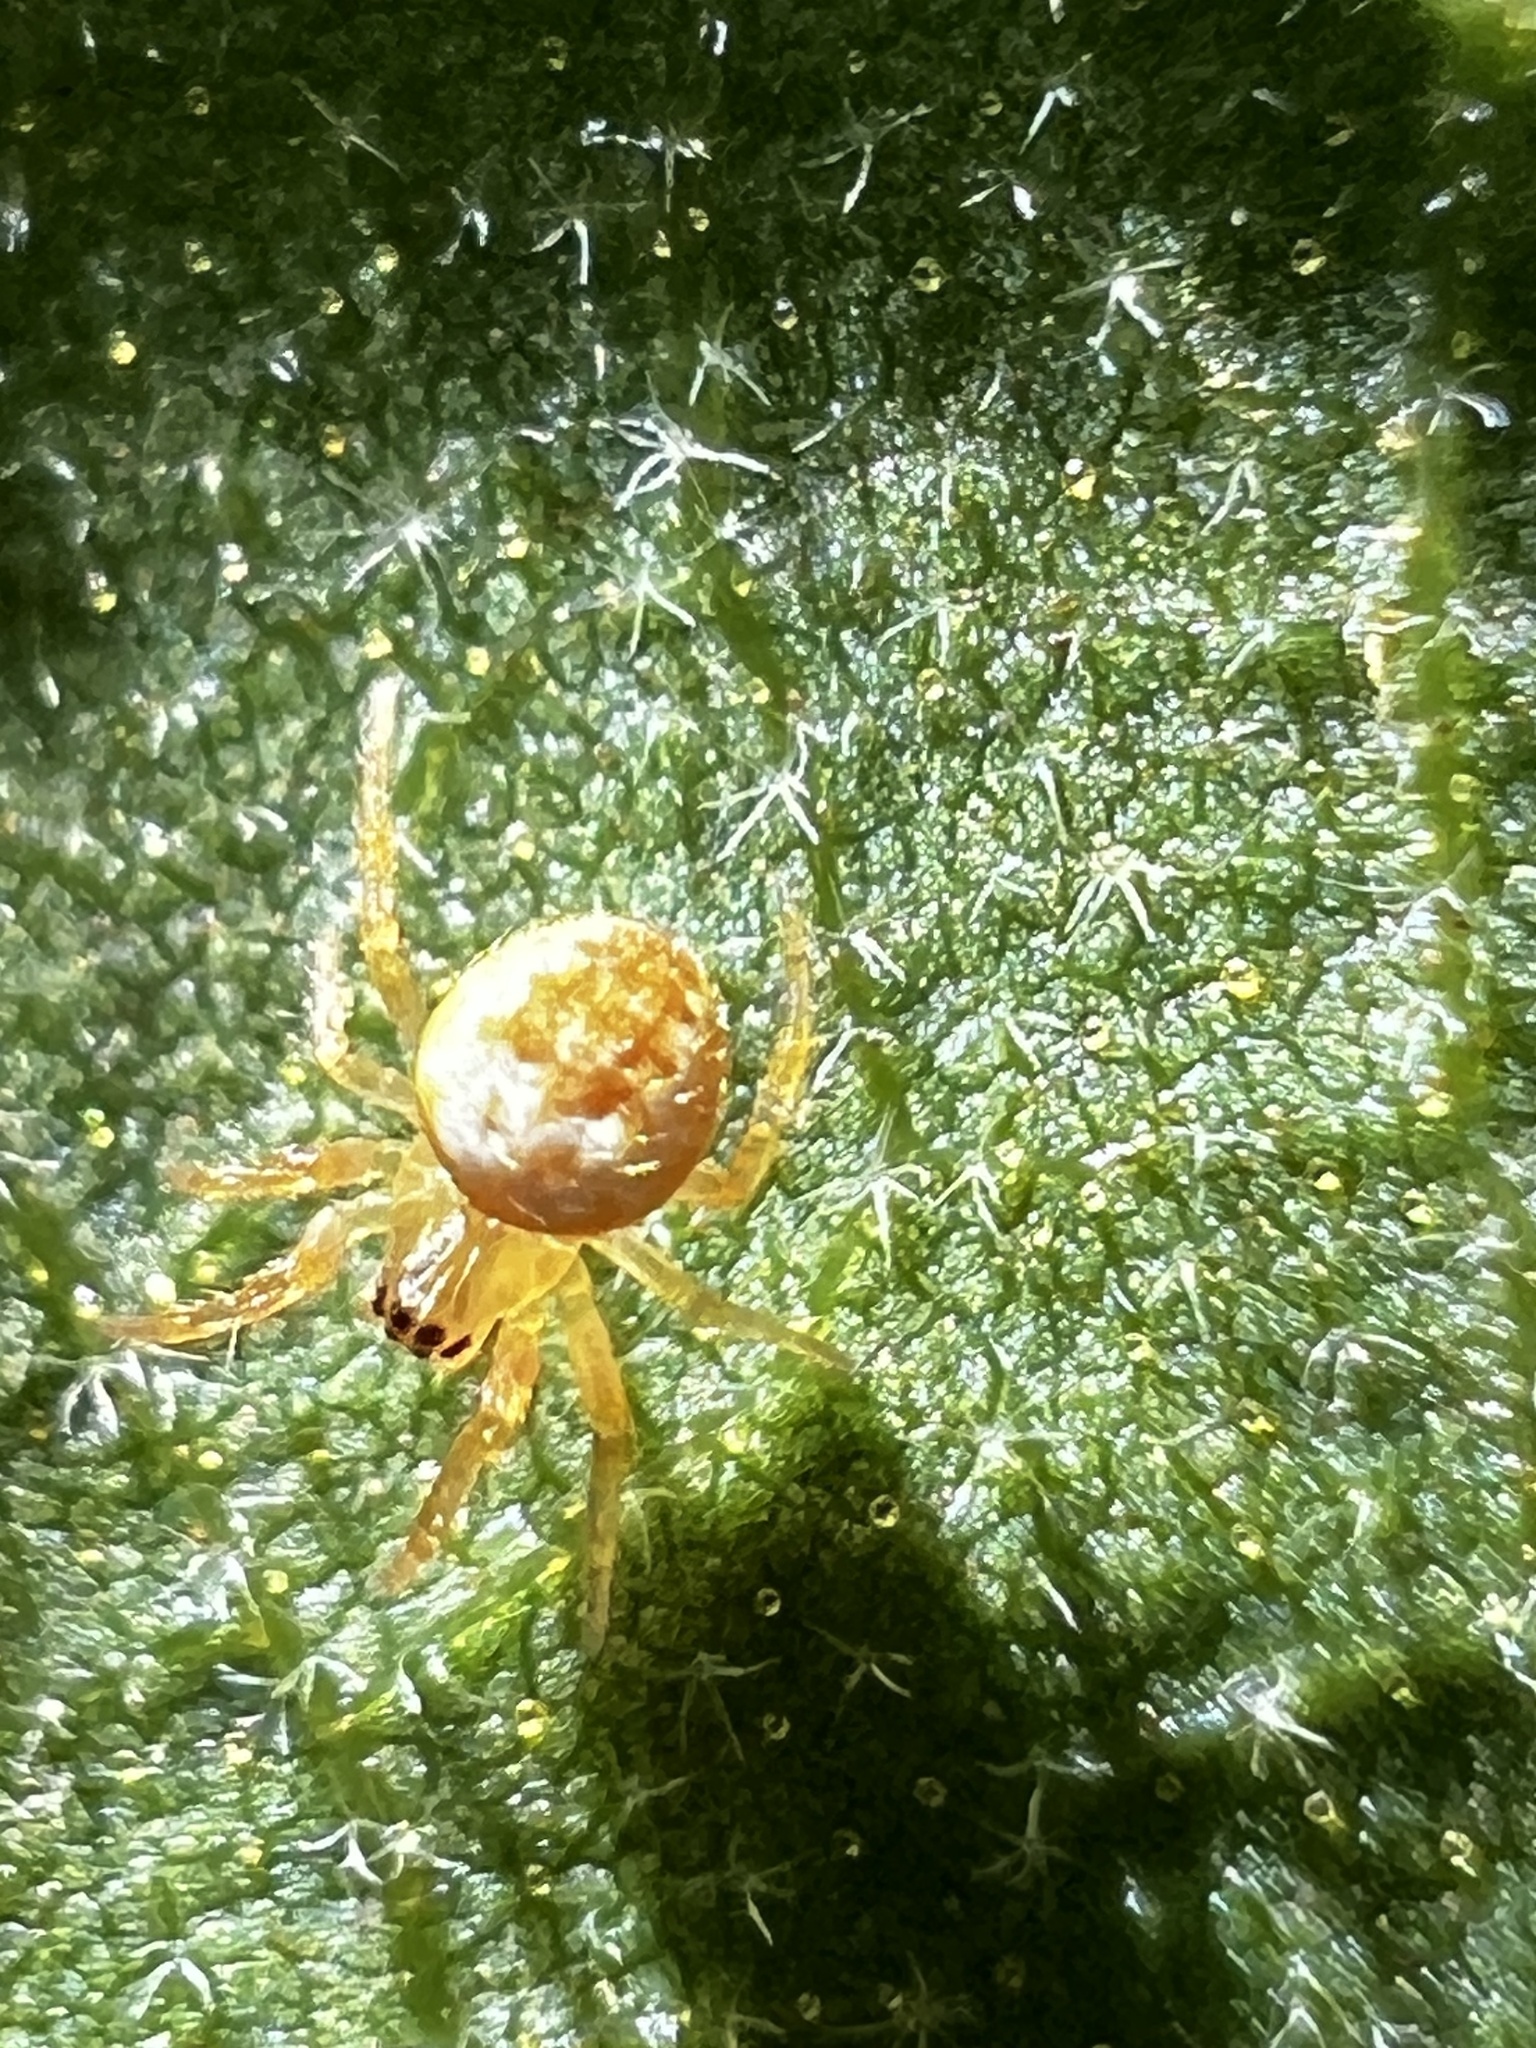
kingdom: Animalia
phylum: Arthropoda
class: Arachnida
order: Araneae
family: Araneidae
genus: Araniella
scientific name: Araniella displicata
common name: Sixspotted orb weaver
